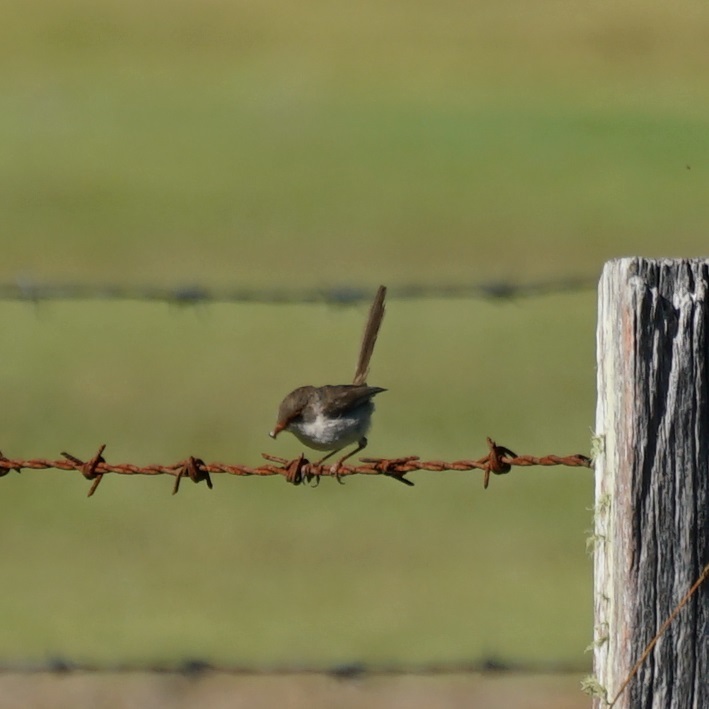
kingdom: Animalia
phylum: Chordata
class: Aves
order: Passeriformes
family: Maluridae
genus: Malurus
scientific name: Malurus cyaneus
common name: Superb fairywren
